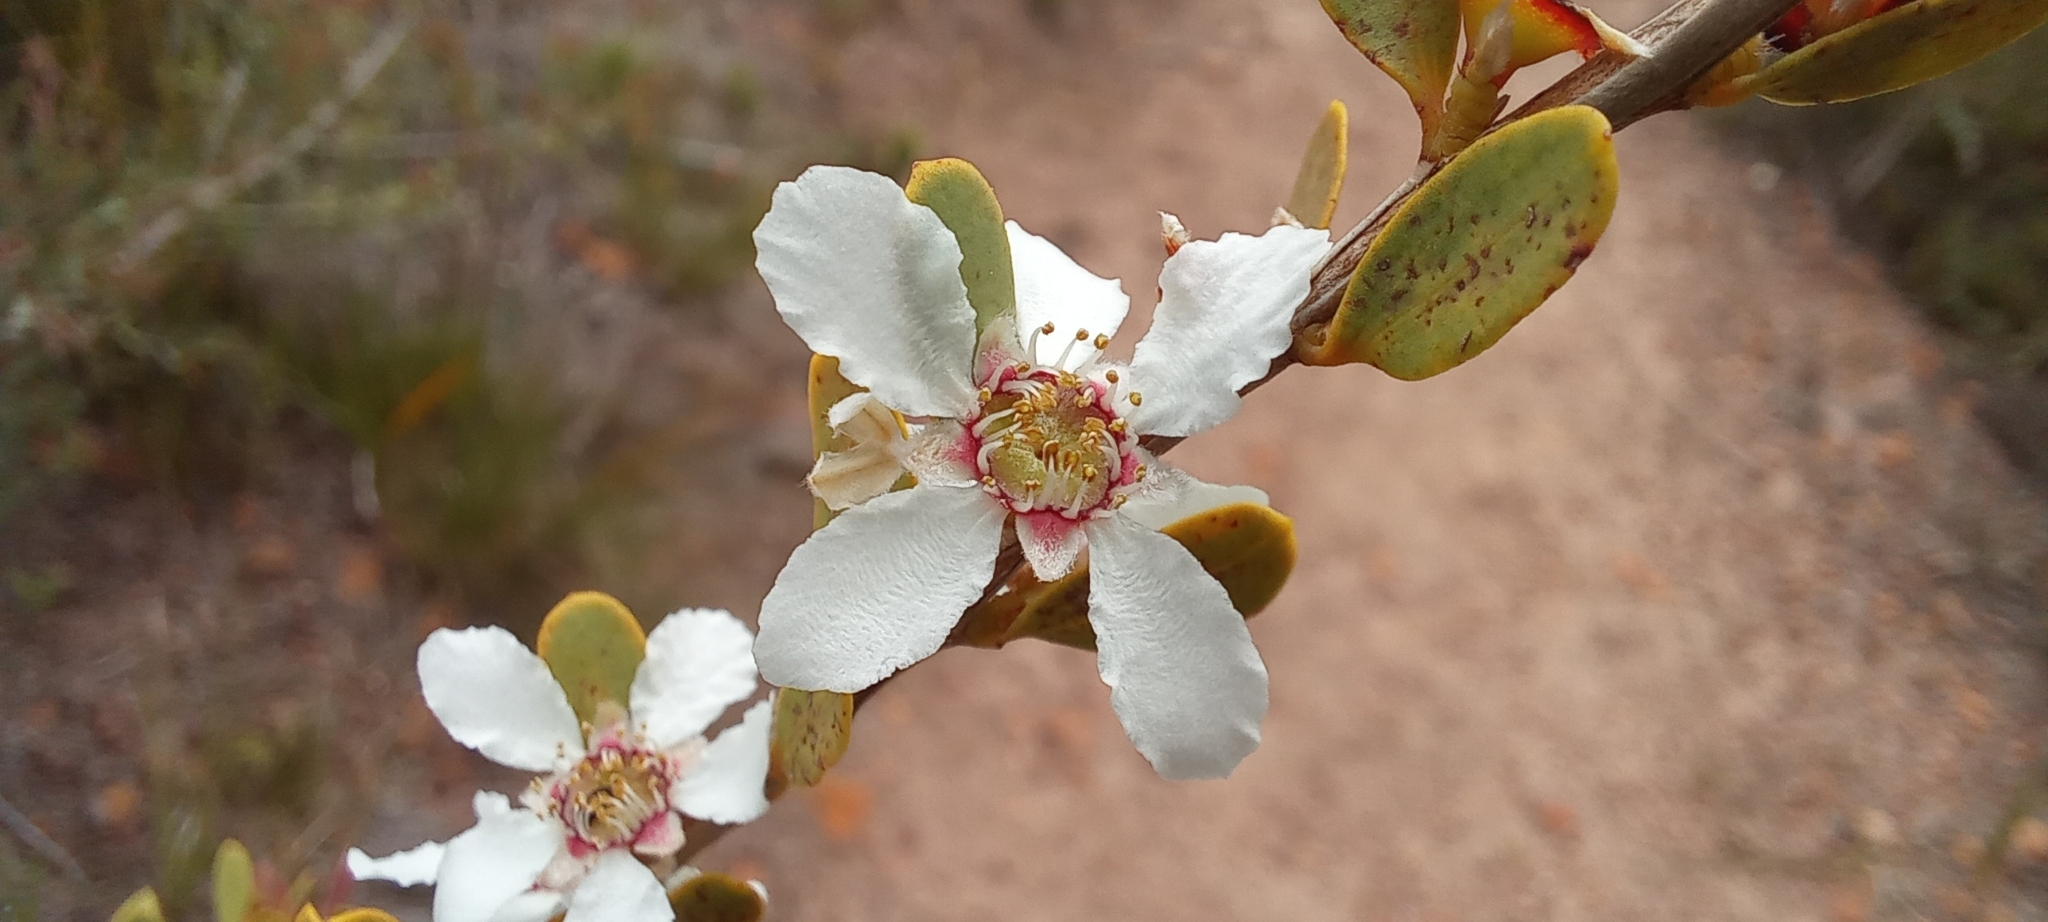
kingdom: Plantae
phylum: Tracheophyta
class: Magnoliopsida
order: Myrtales
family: Myrtaceae
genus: Leptospermum
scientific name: Leptospermum laevigatum
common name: Australian teatree
